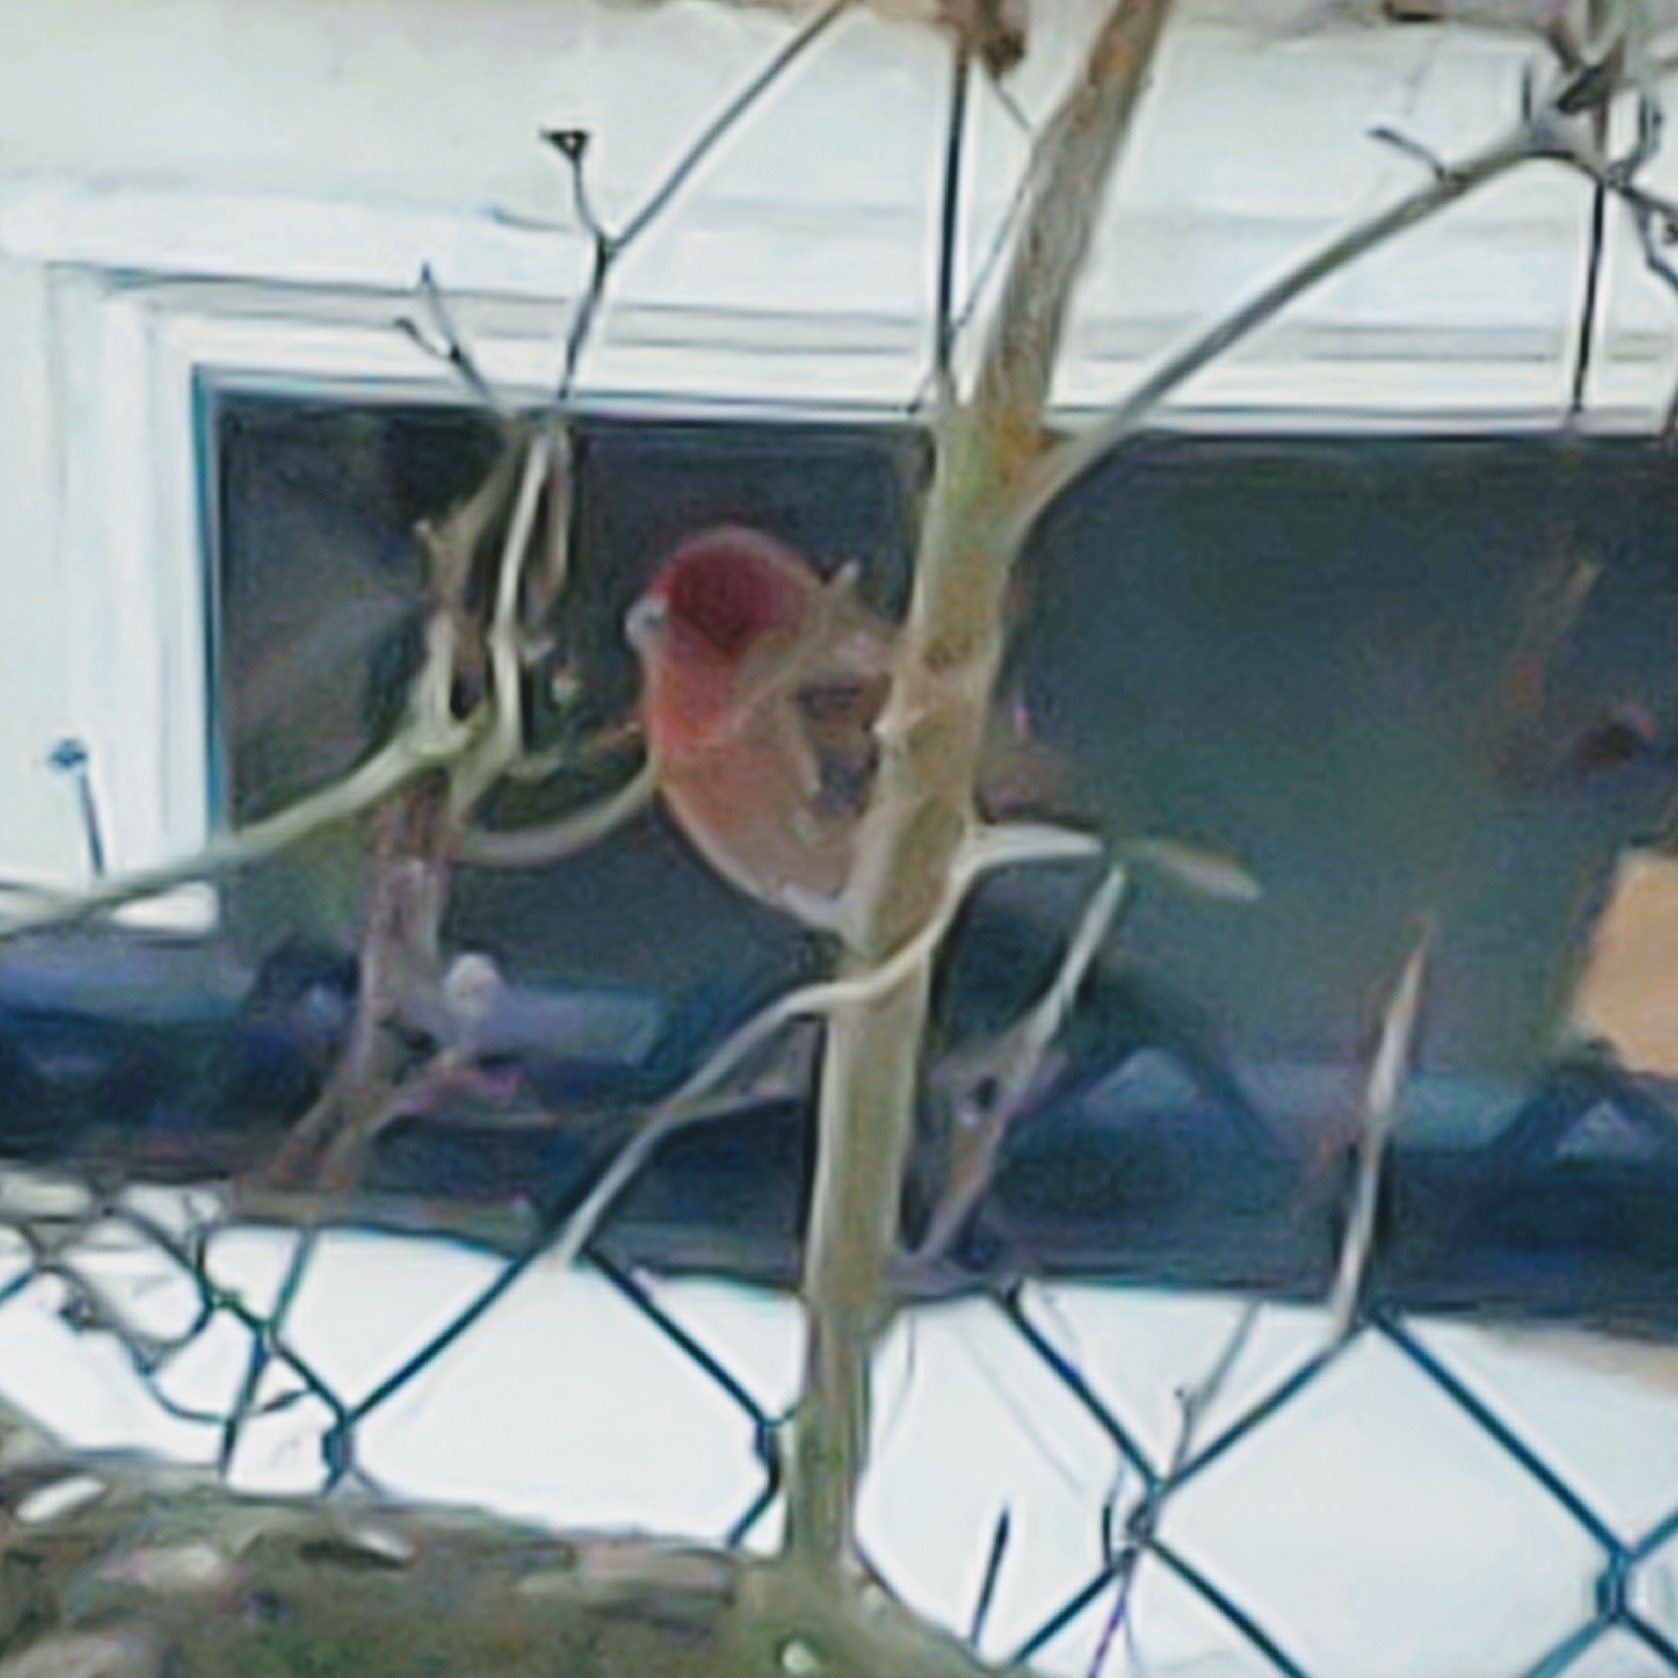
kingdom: Animalia
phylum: Chordata
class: Aves
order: Passeriformes
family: Fringillidae
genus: Haemorhous
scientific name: Haemorhous mexicanus
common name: House finch
